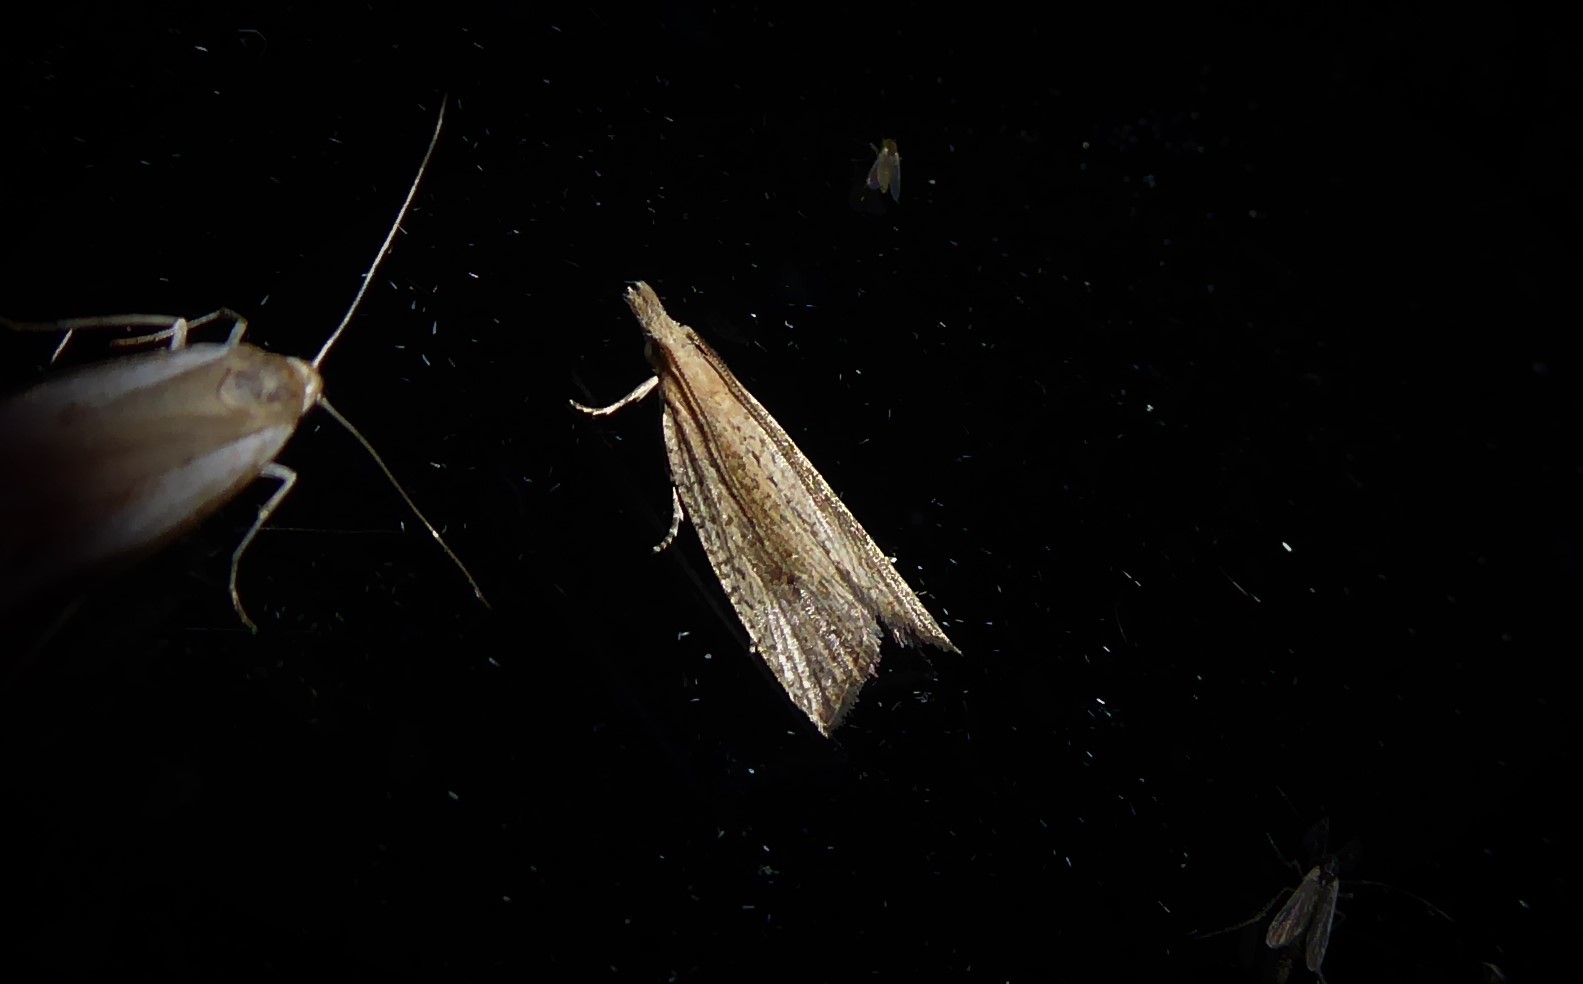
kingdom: Animalia
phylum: Arthropoda
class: Insecta
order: Lepidoptera
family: Tortricidae
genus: Bactra
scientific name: Bactra noteraula
